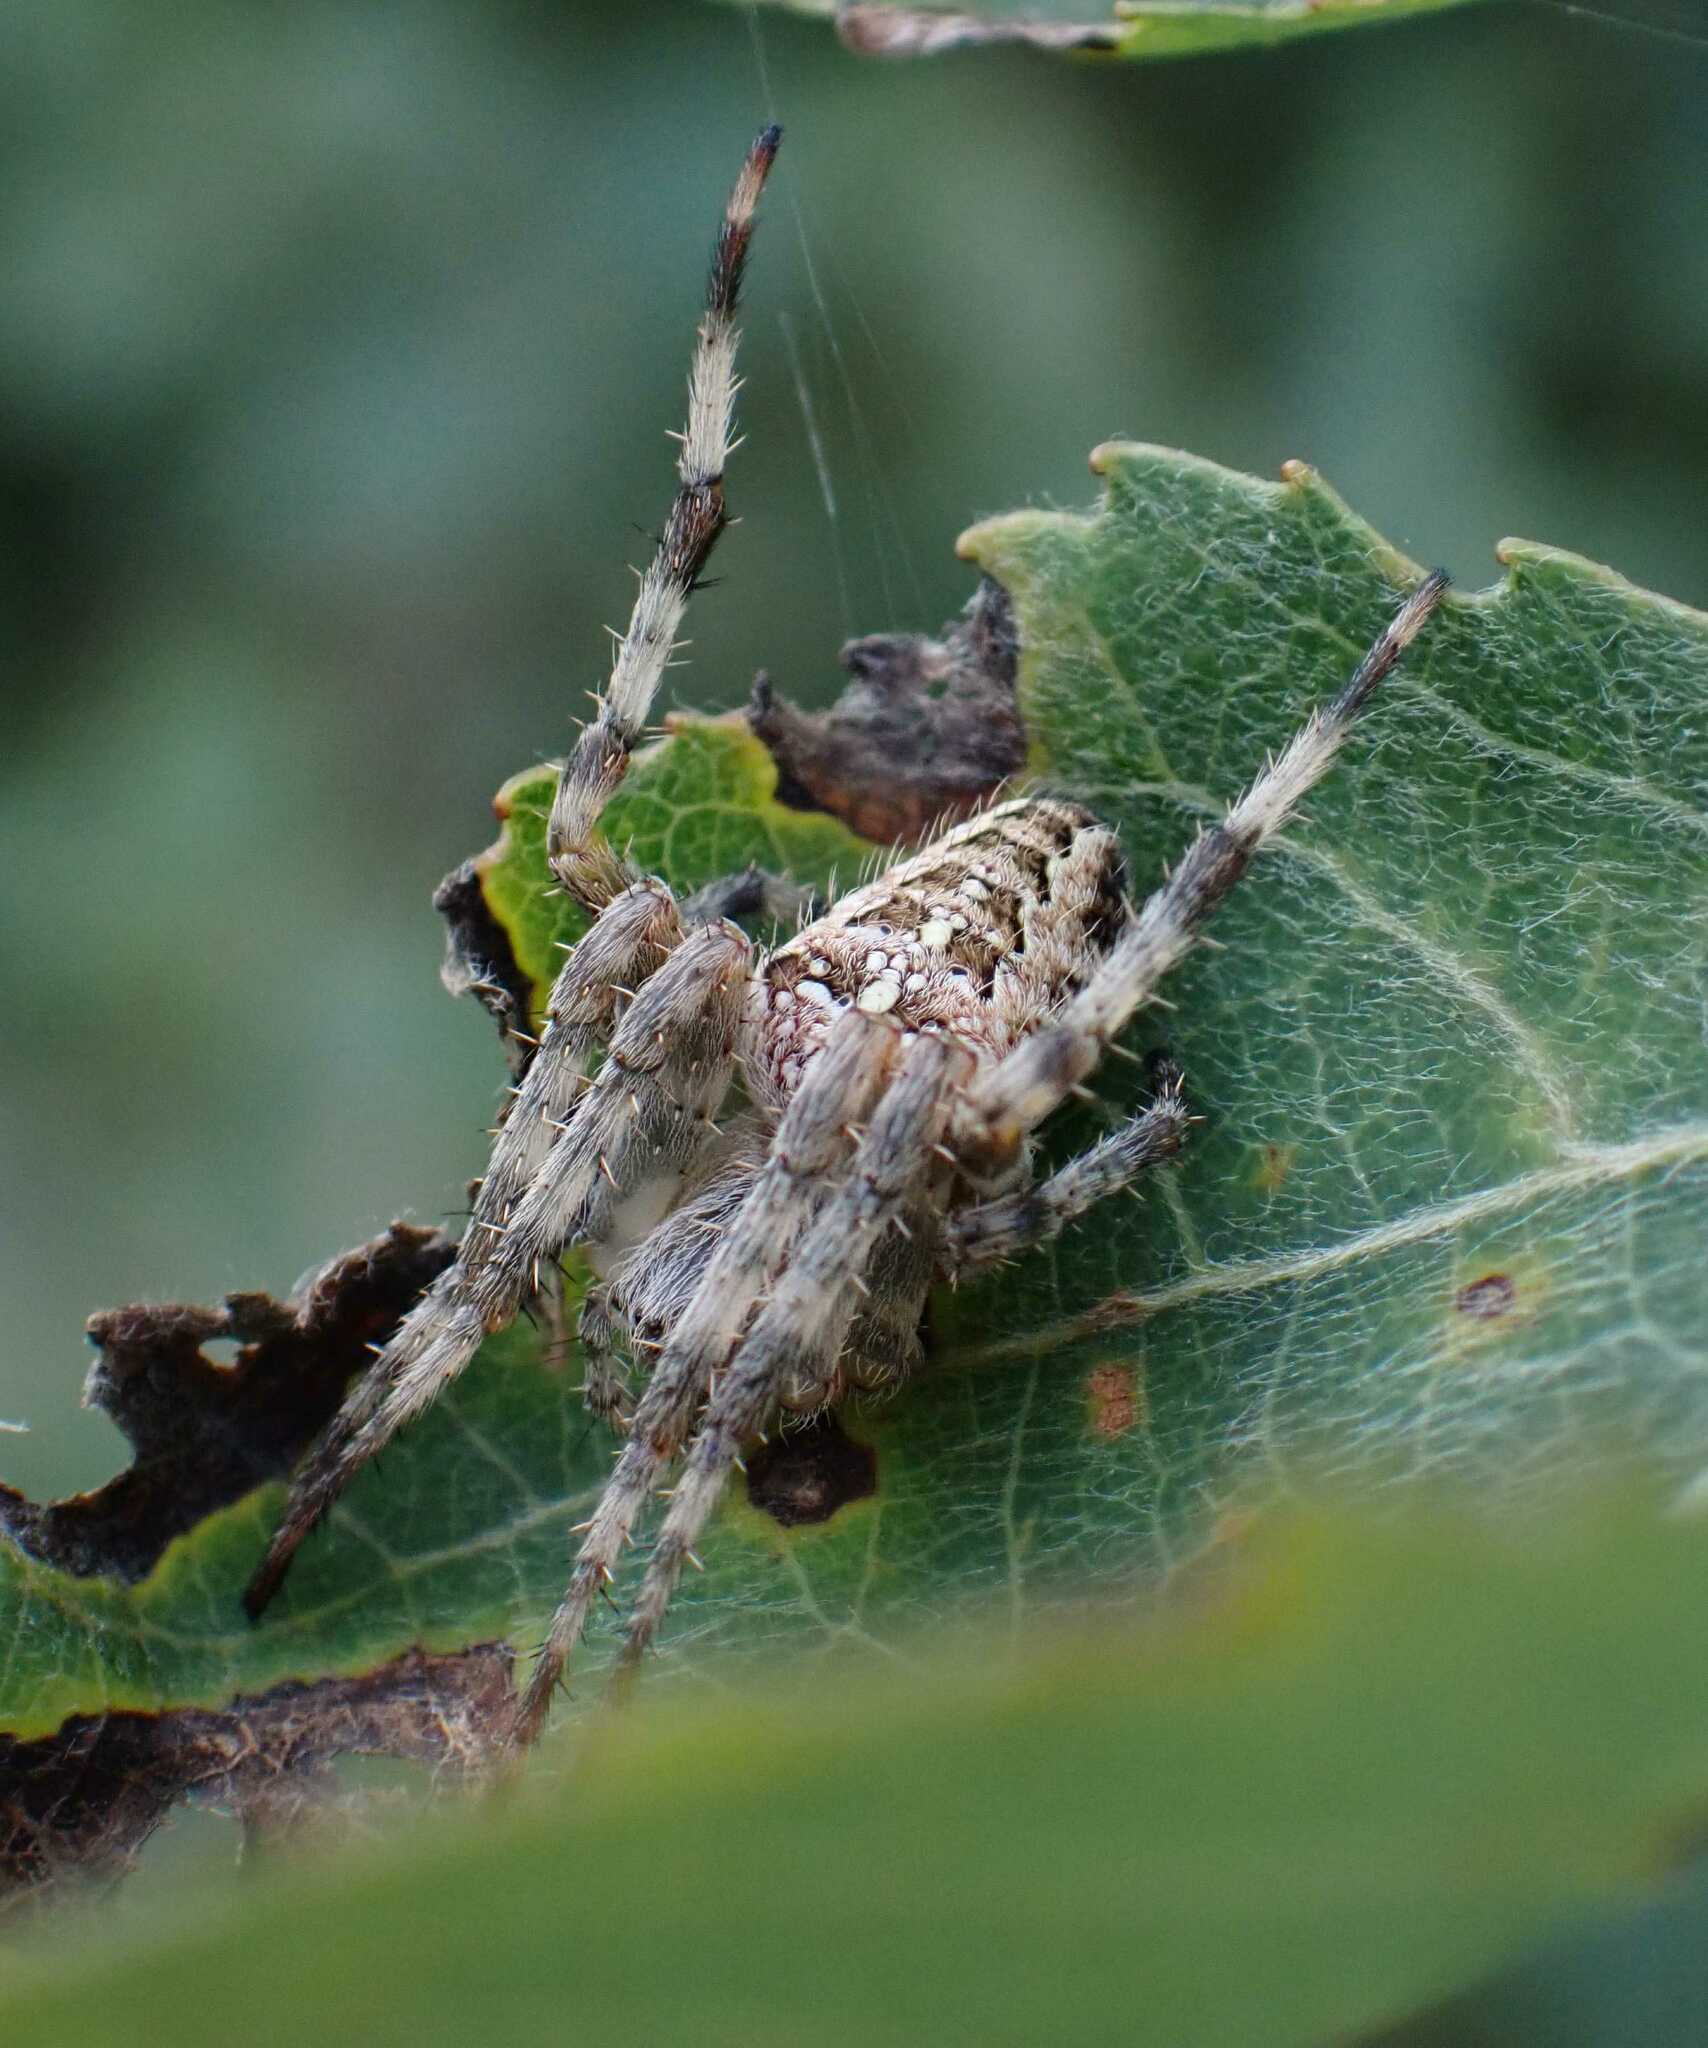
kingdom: Animalia
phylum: Arthropoda
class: Arachnida
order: Araneae
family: Araneidae
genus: Araneus
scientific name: Araneus diadematus
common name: Cross orbweaver
